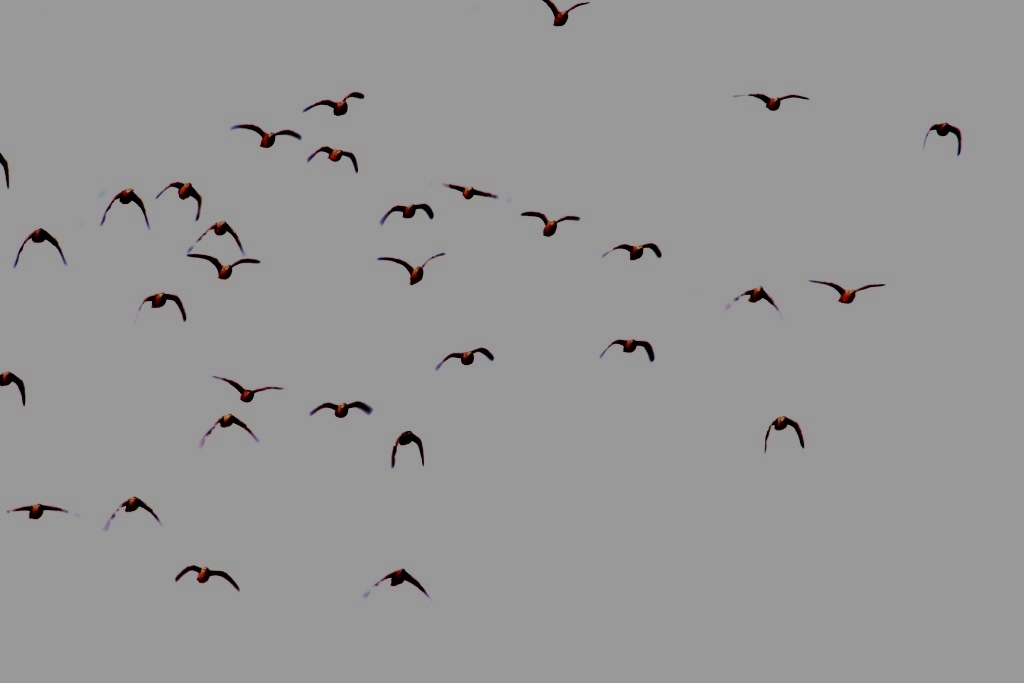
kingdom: Animalia
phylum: Chordata
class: Aves
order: Pteroclidiformes
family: Pteroclididae
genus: Pterocles
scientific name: Pterocles burchelli
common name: Burchell's sandgrouse
